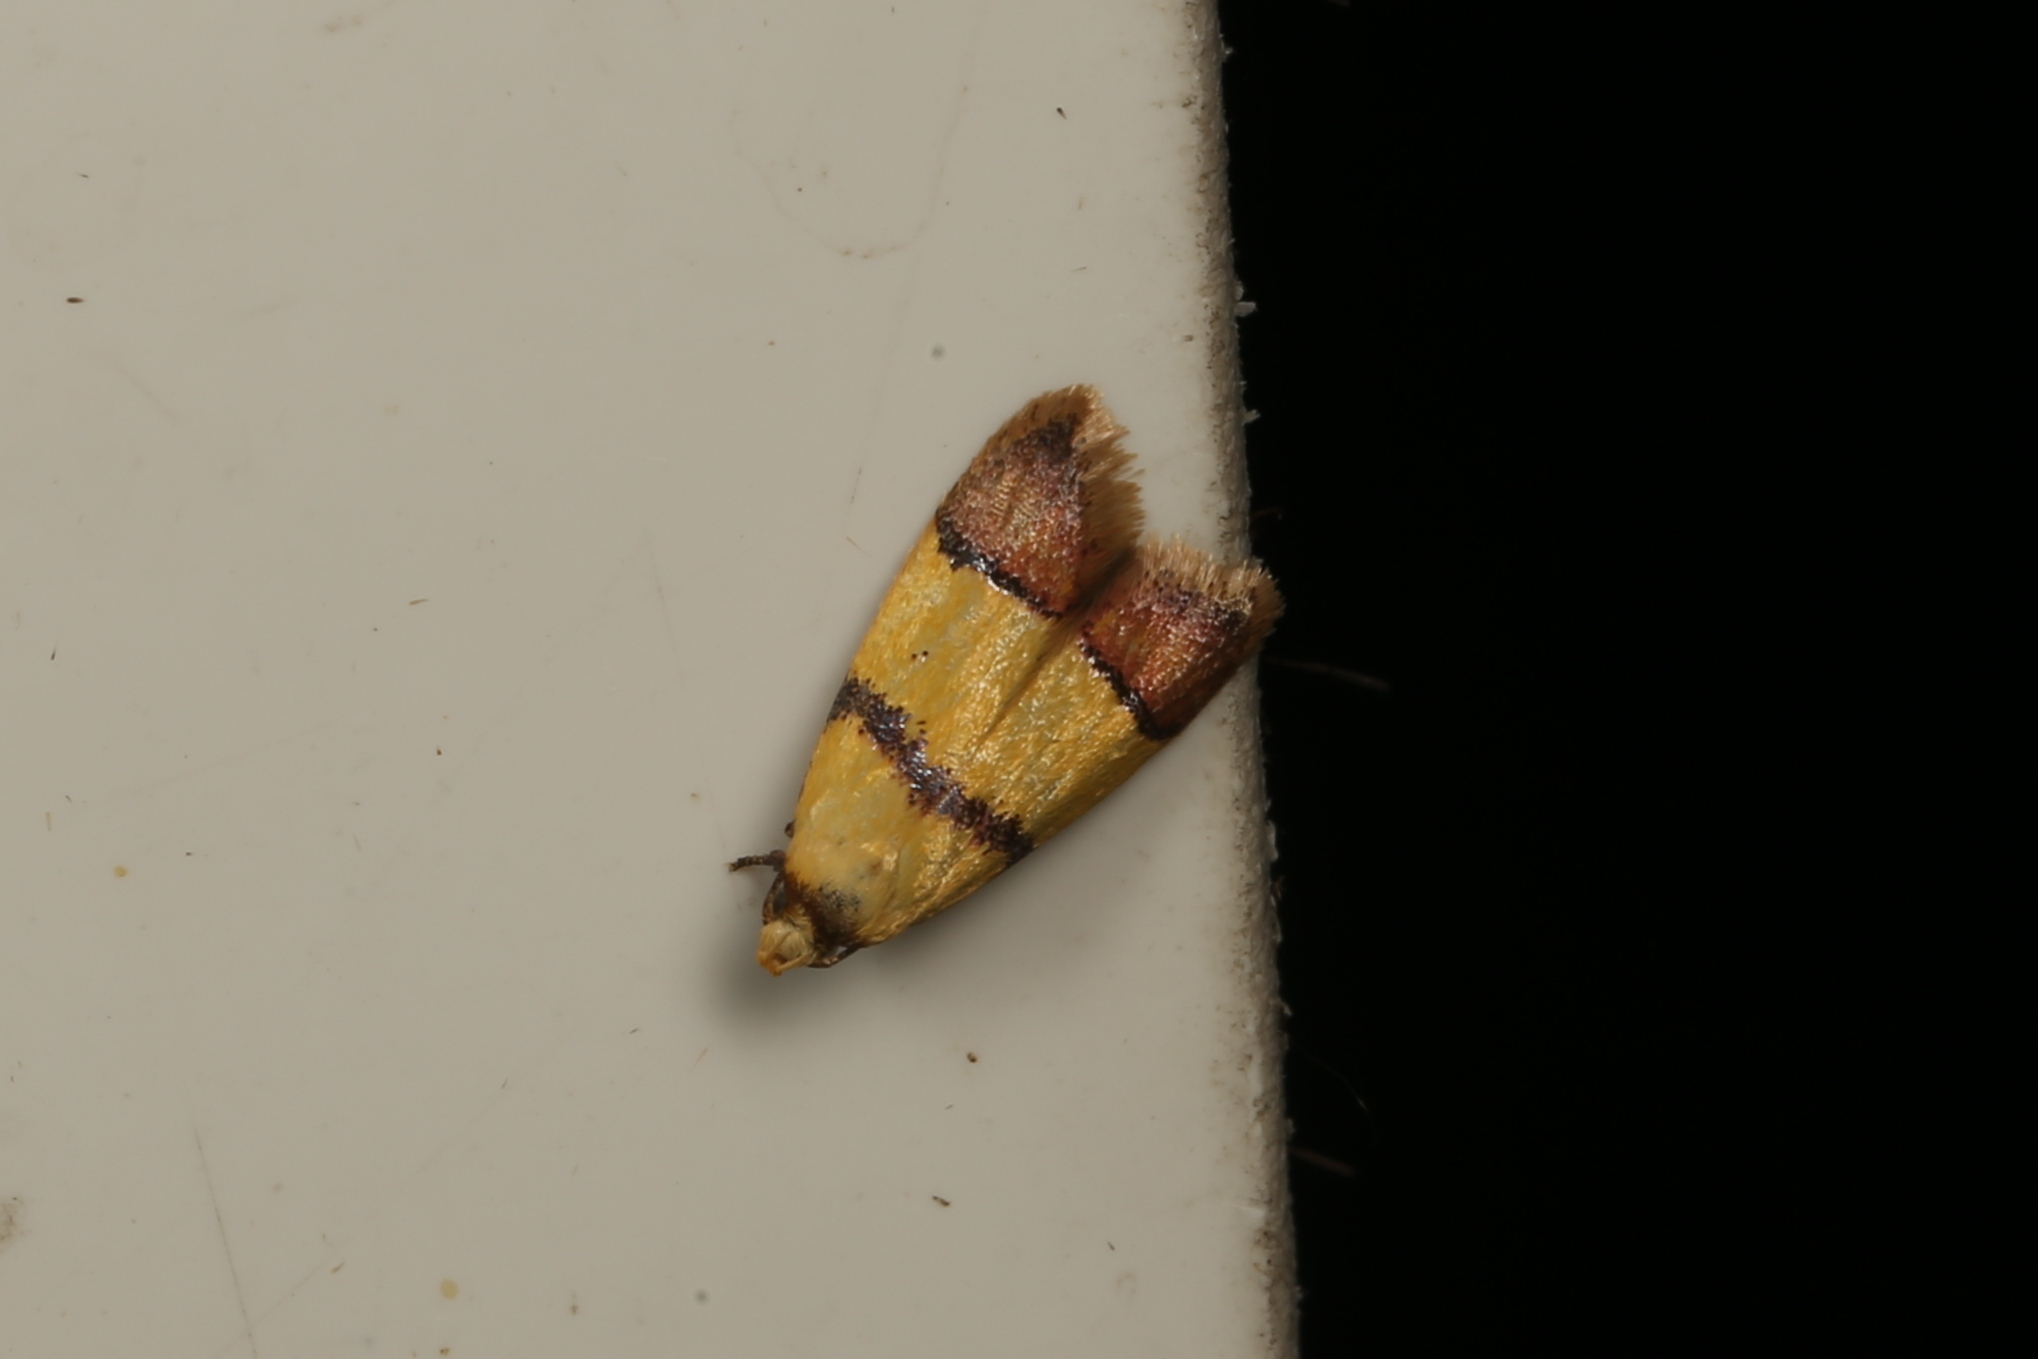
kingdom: Animalia
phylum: Arthropoda
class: Insecta
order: Lepidoptera
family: Oecophoridae
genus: Heteroteucha
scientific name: Heteroteucha distephana
